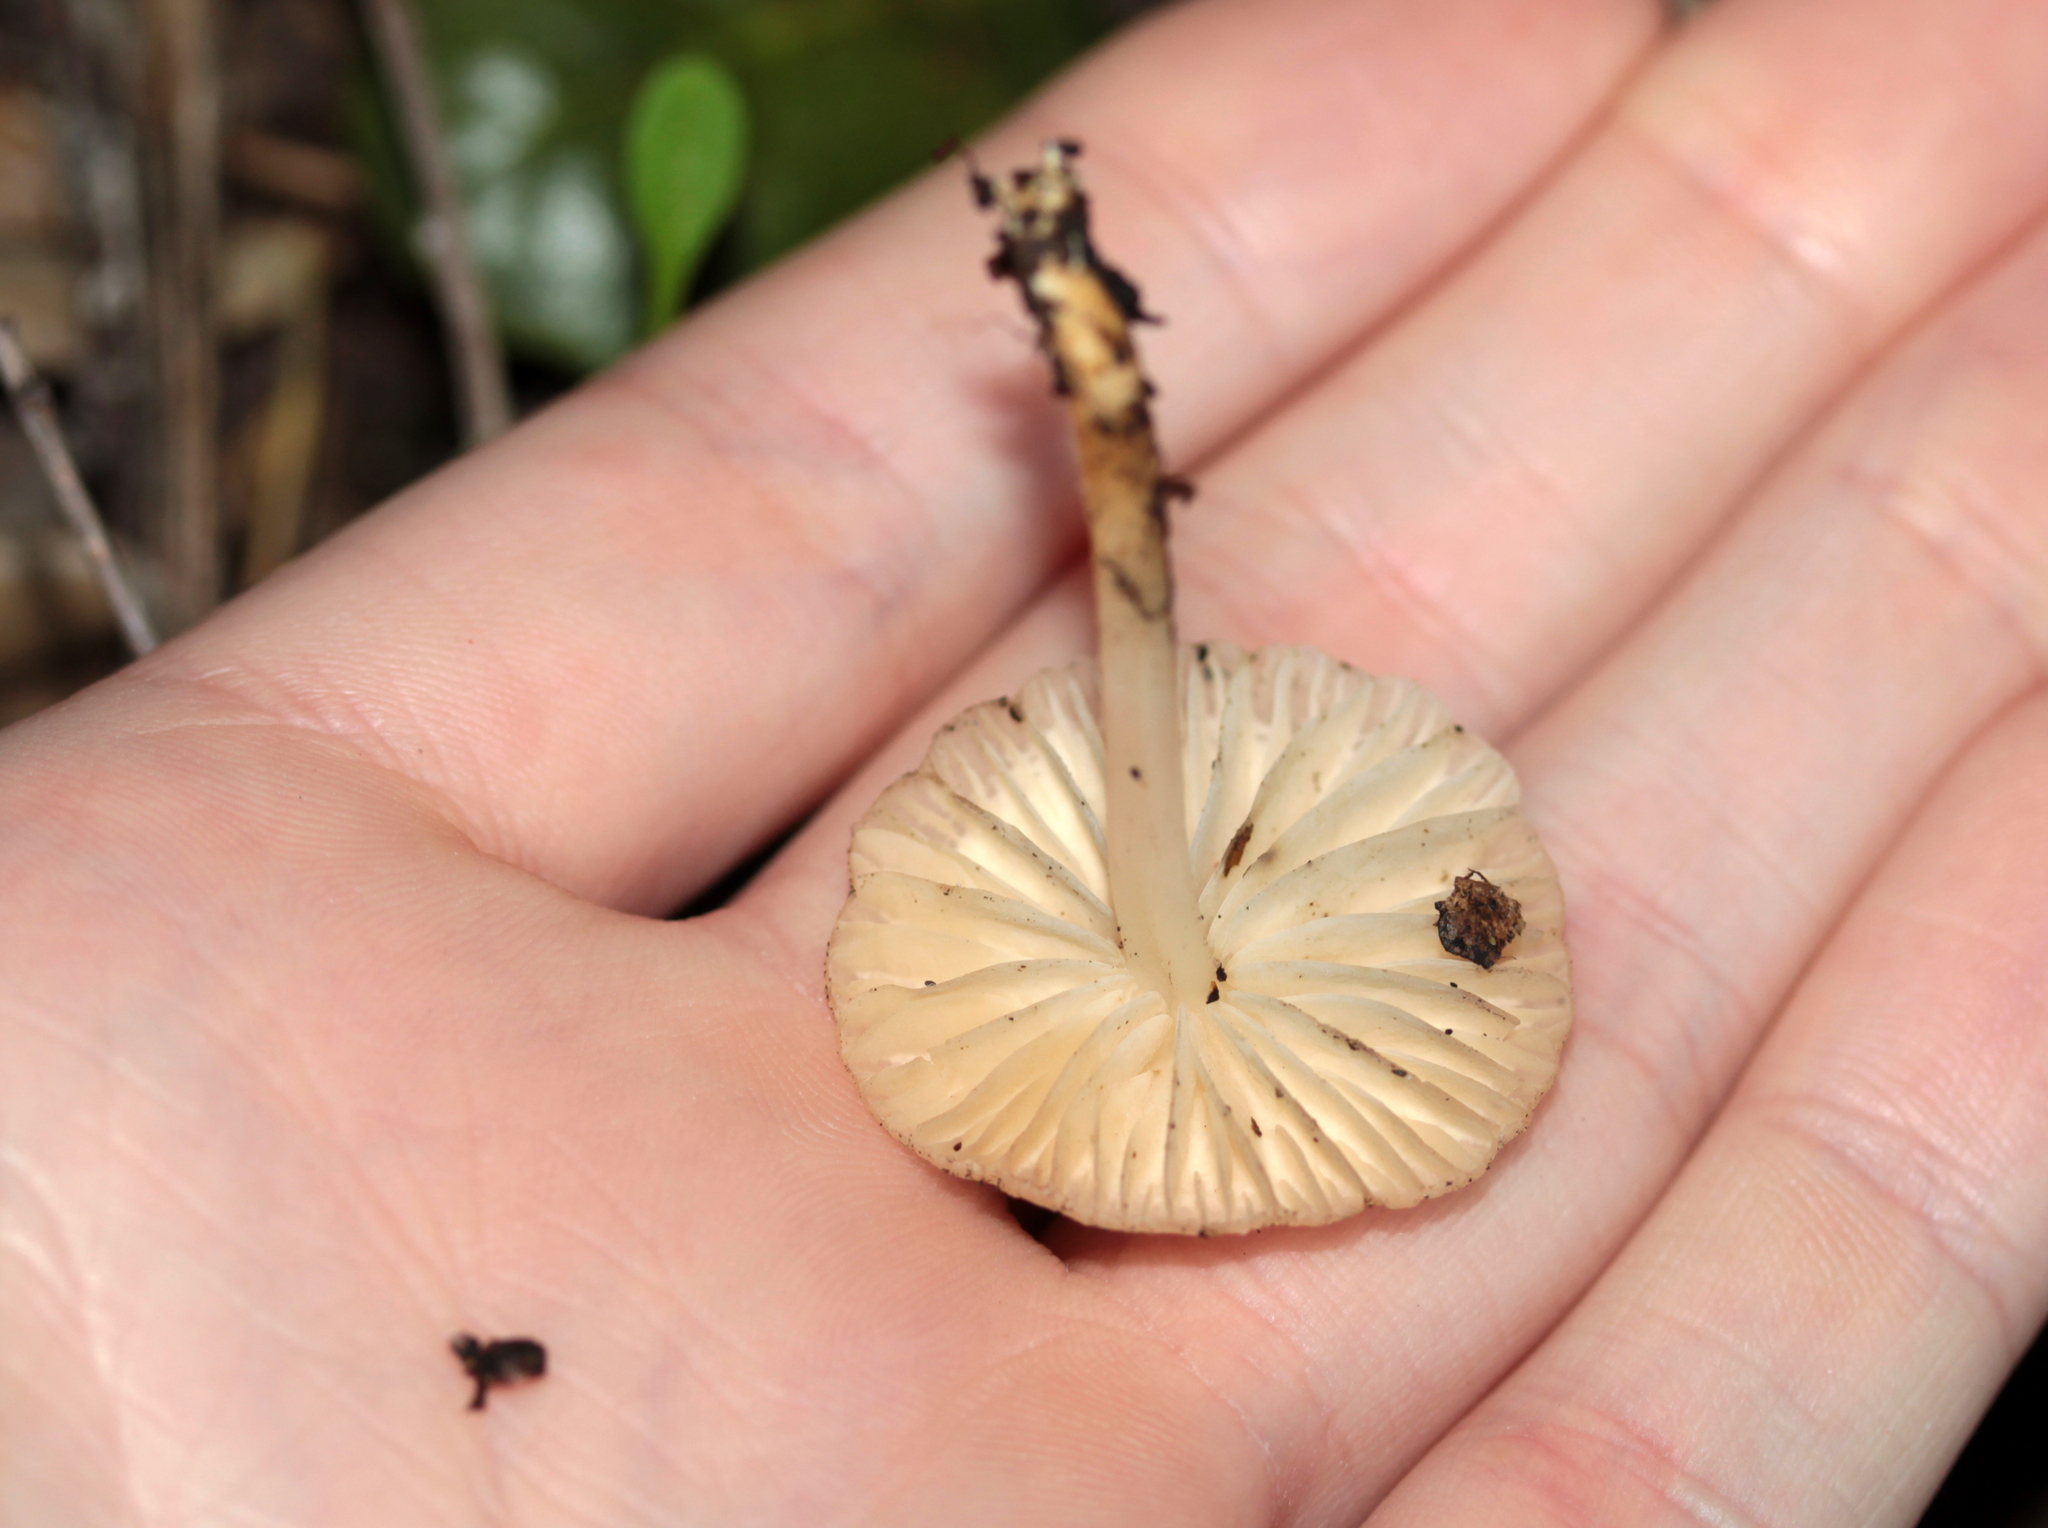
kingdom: Fungi
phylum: Basidiomycota
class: Agaricomycetes
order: Agaricales
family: Marasmiaceae
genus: Marasmius
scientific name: Marasmius albogriseus
